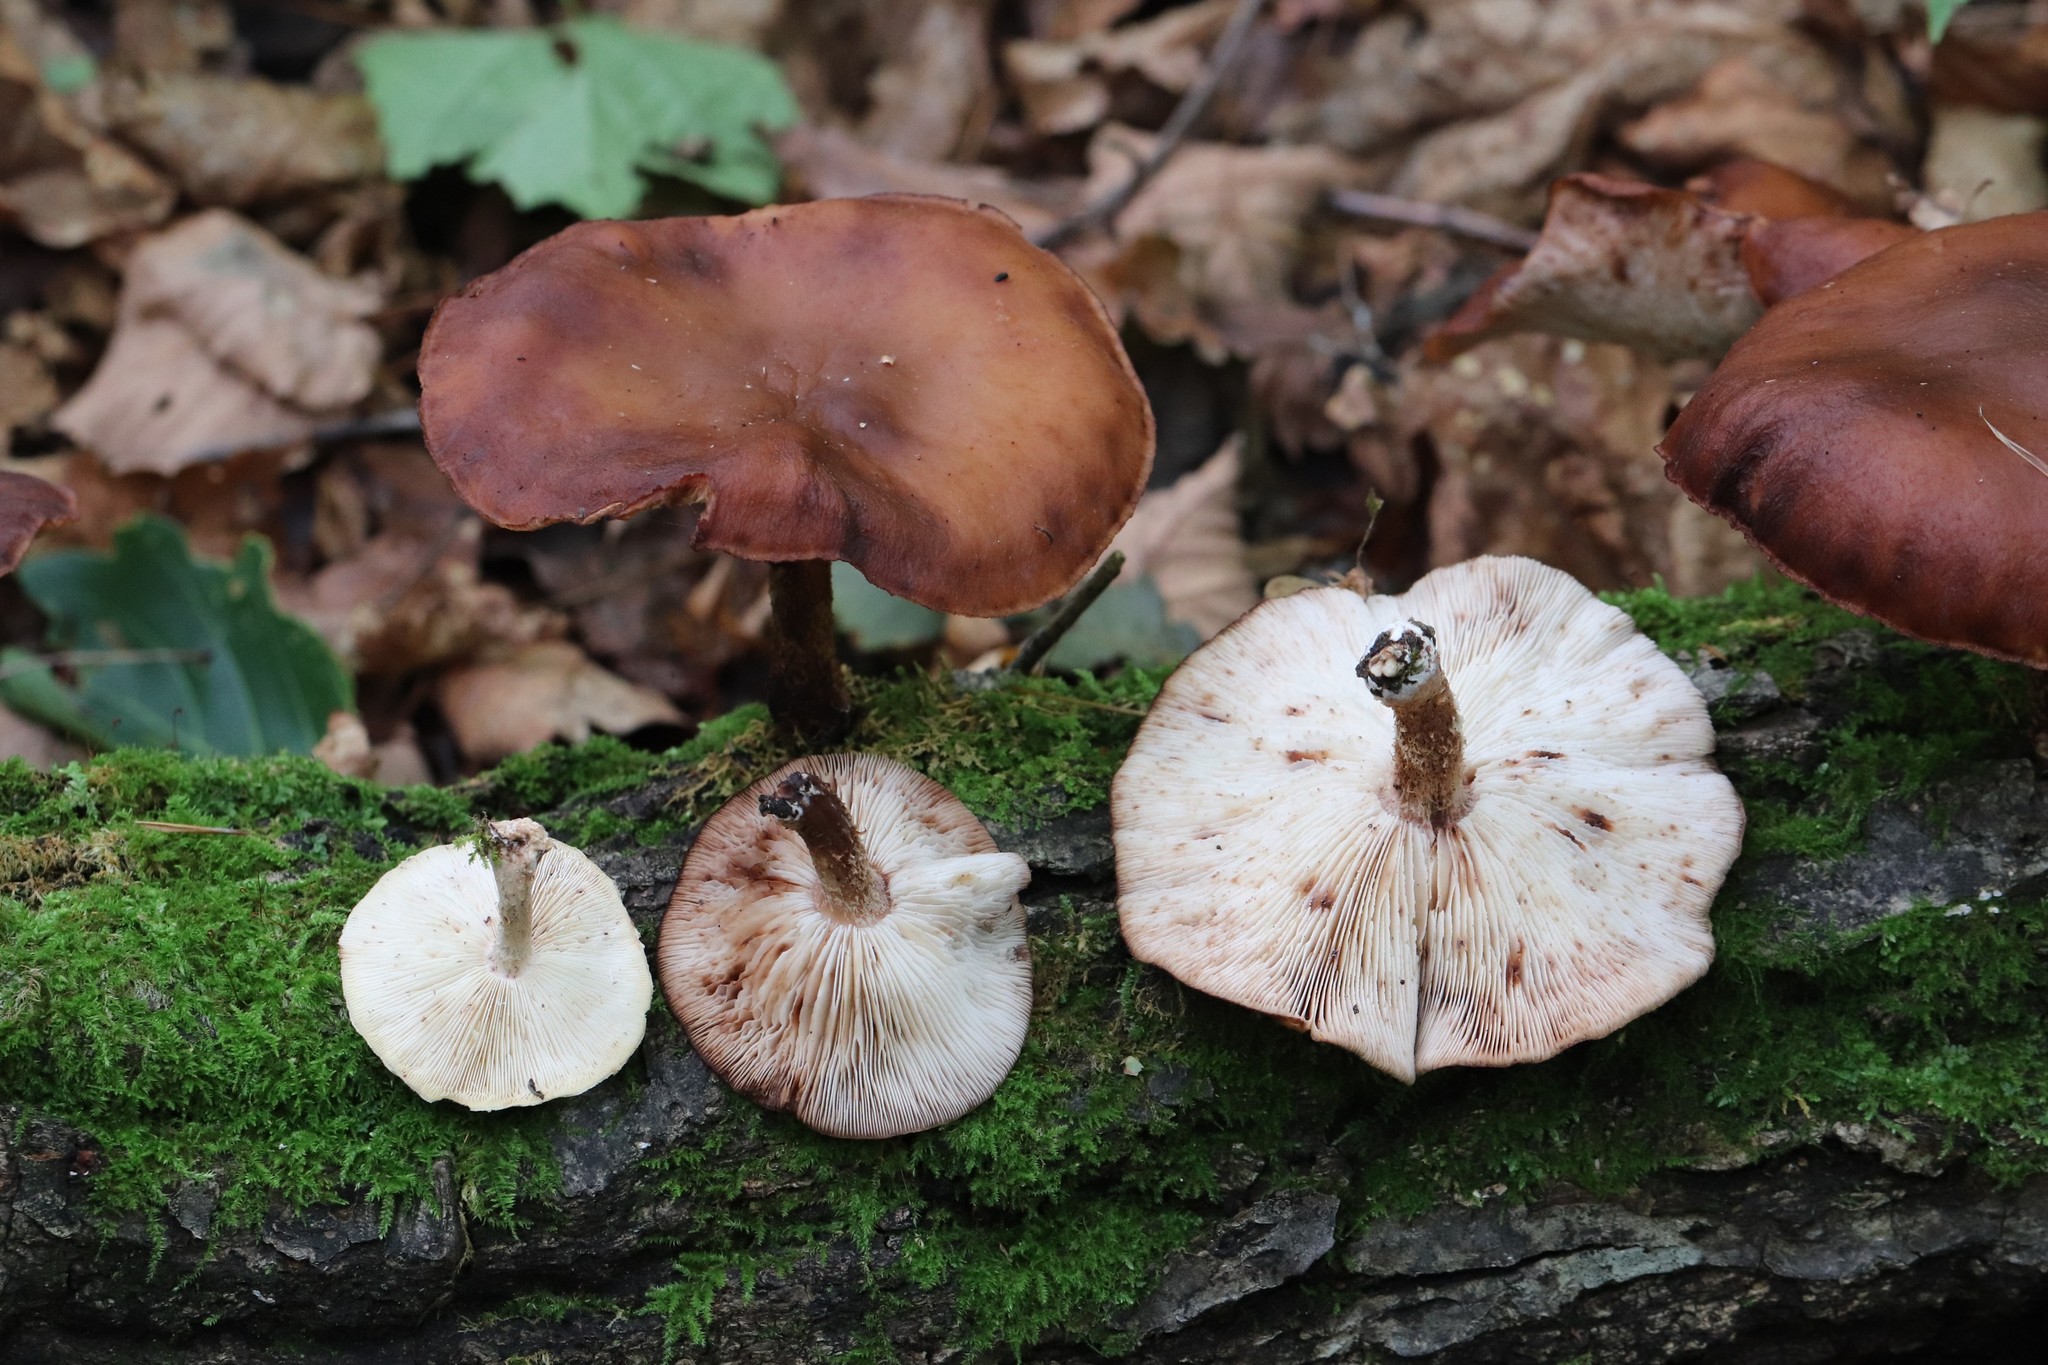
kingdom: Fungi
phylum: Basidiomycota
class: Agaricomycetes
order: Agaricales
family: Omphalotaceae
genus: Lentinula
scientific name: Lentinula edodes
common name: Shiitake
